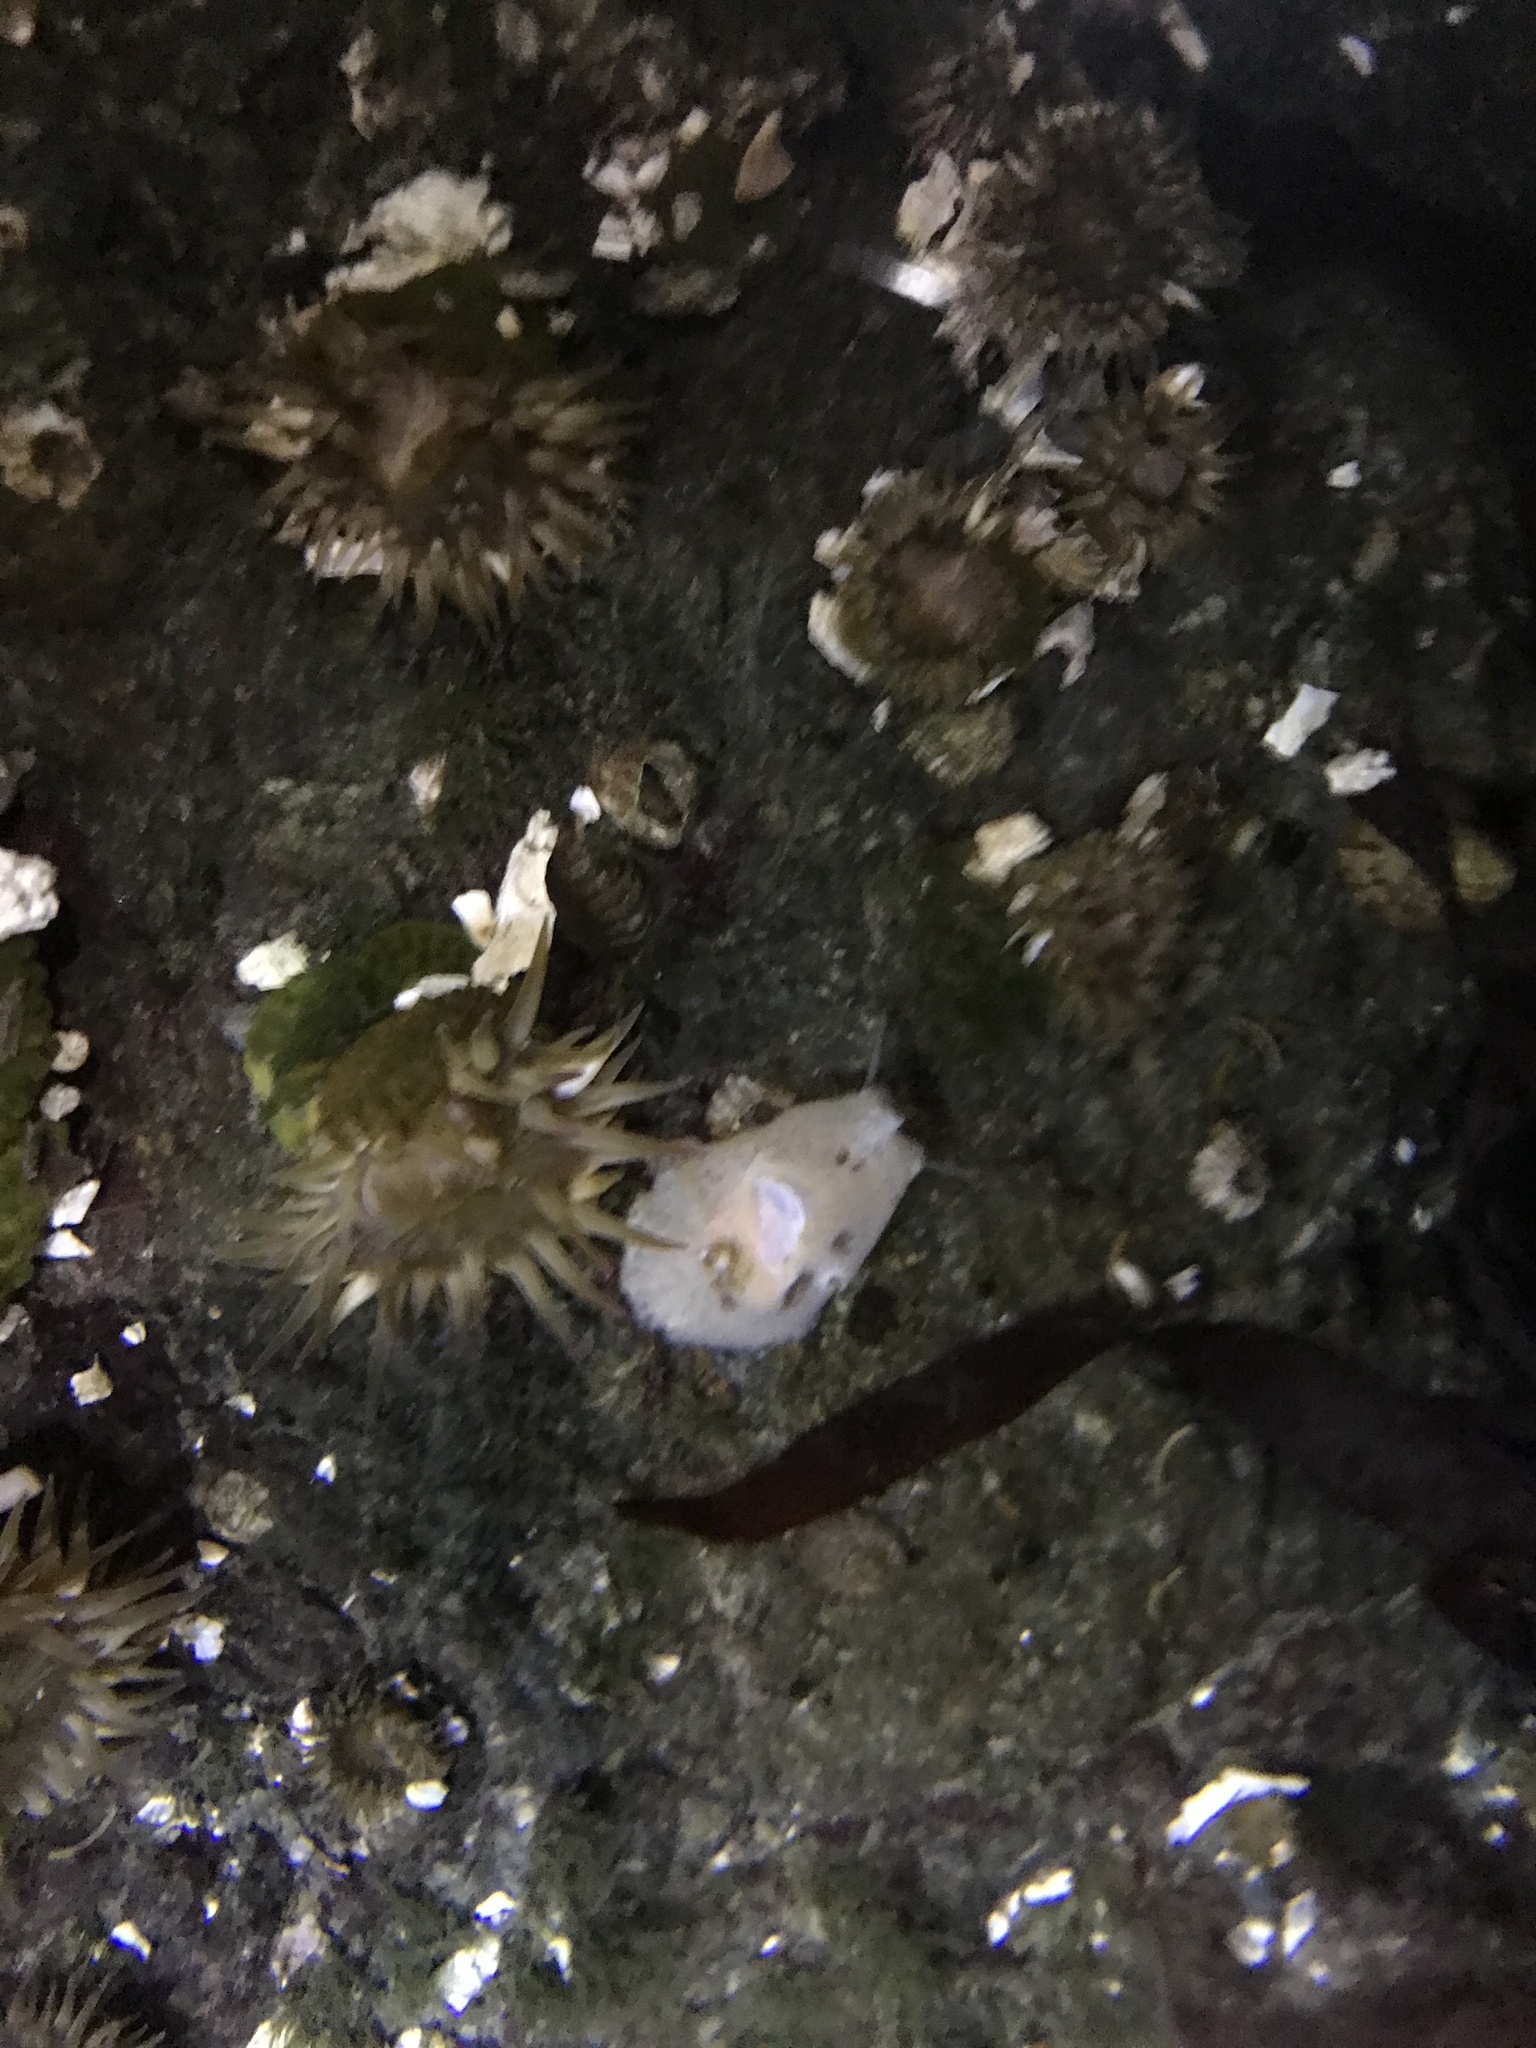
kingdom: Animalia
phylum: Mollusca
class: Gastropoda
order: Littorinimorpha
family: Velutinidae
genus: Marsenina
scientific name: Marsenina stearnsii
